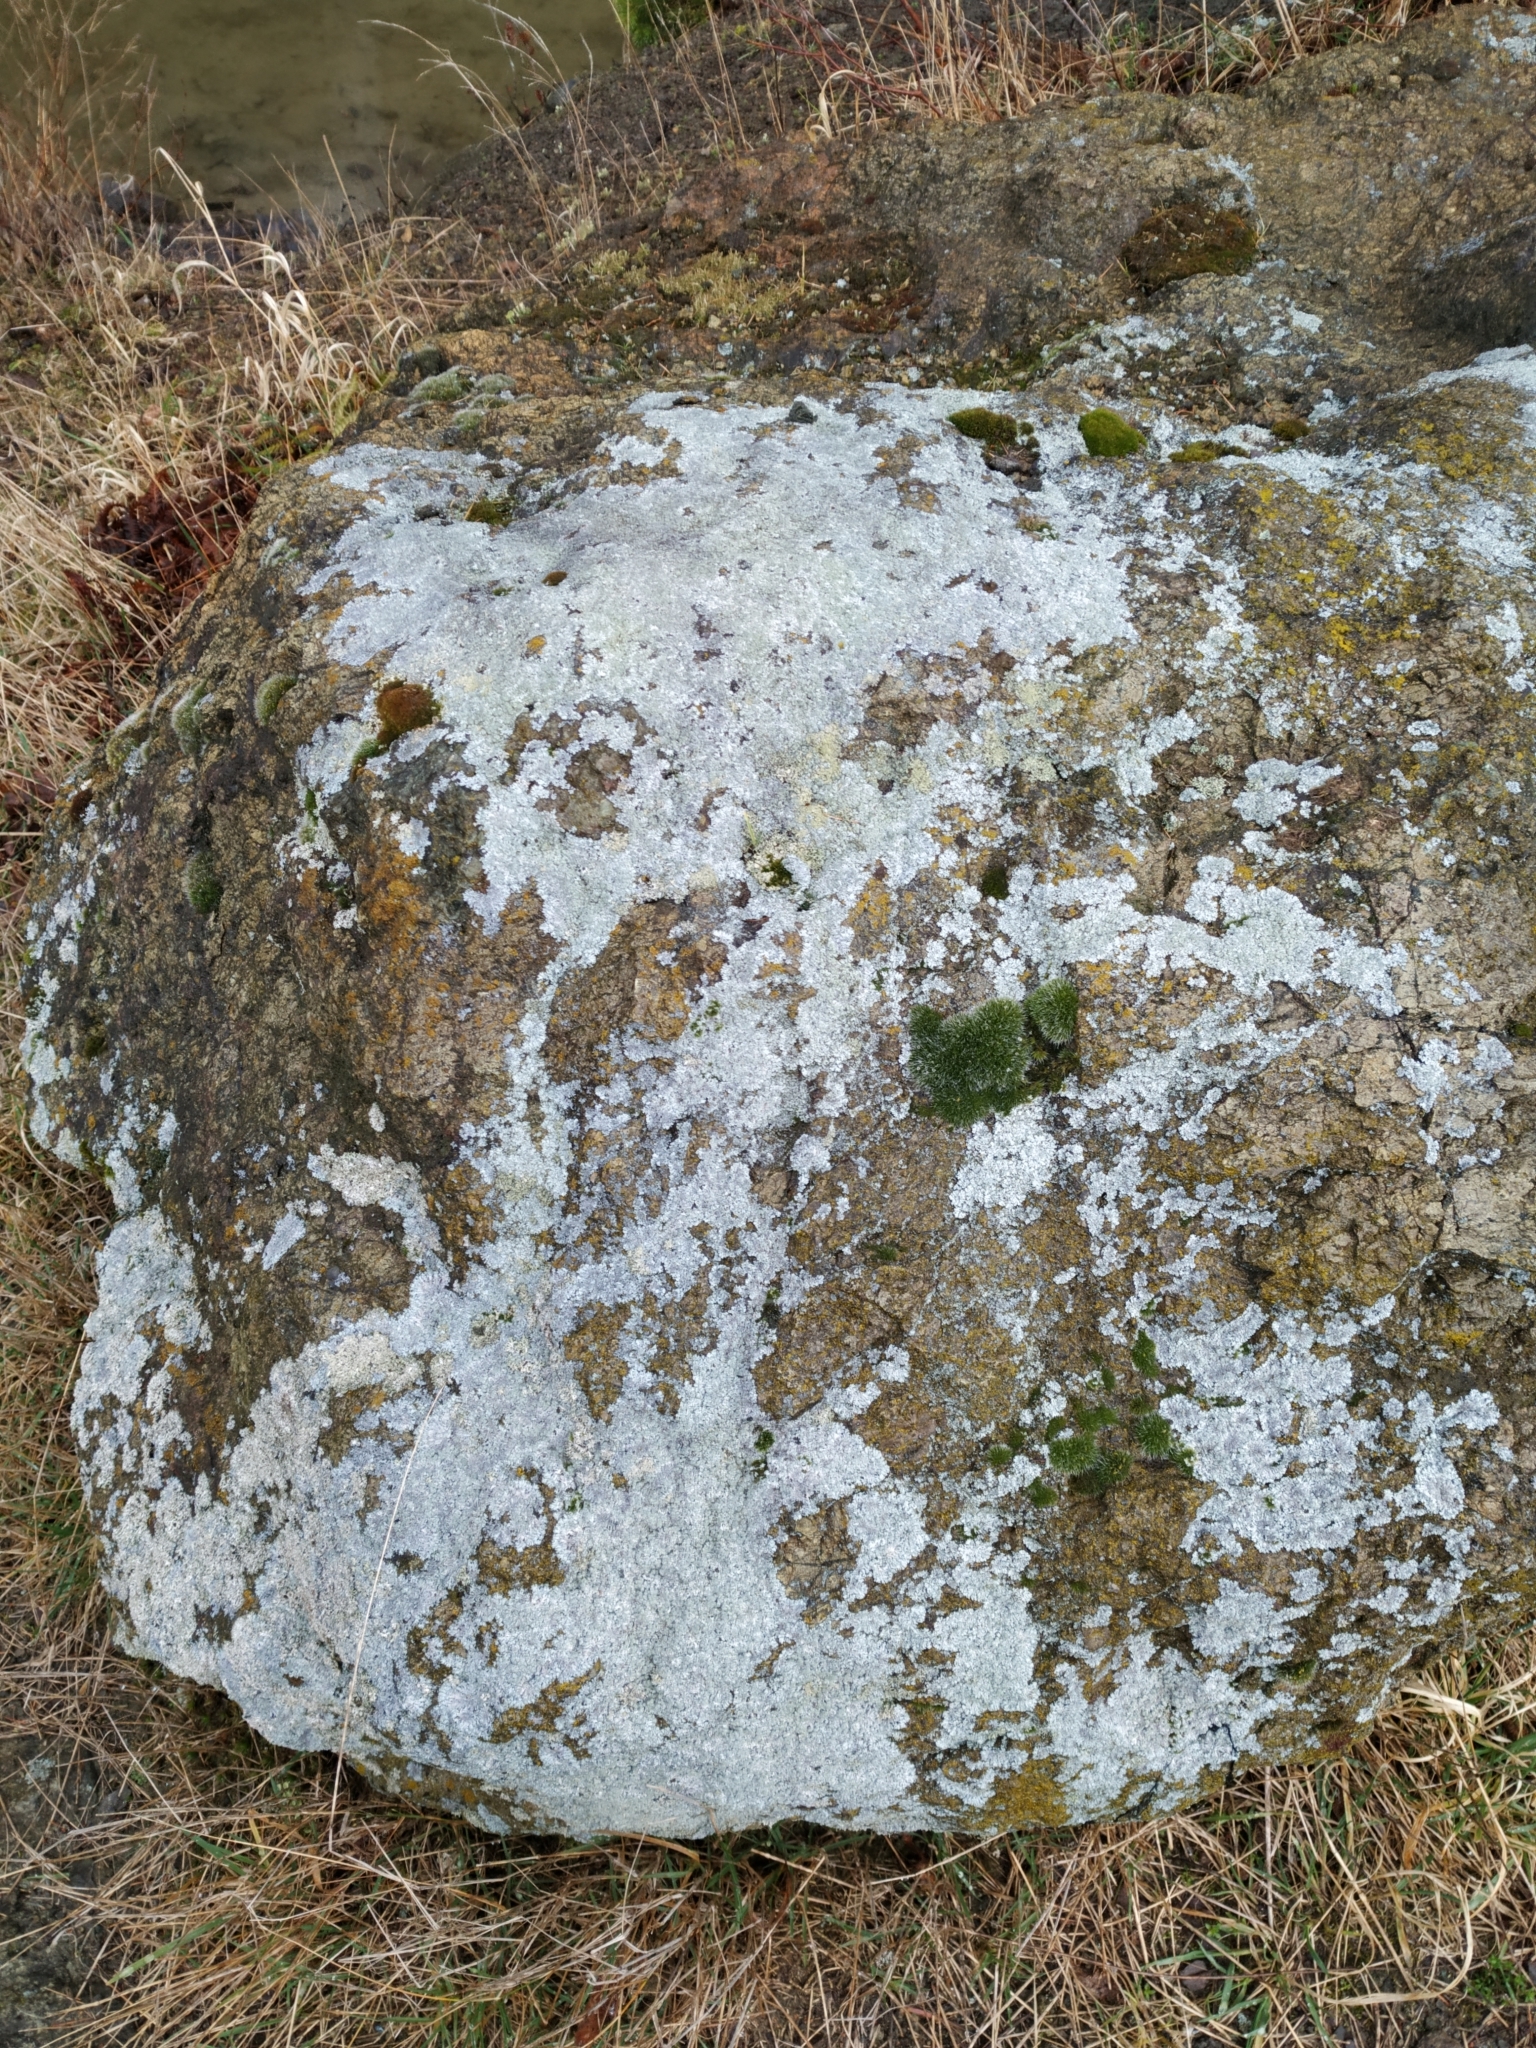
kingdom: Fungi
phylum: Ascomycota
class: Lecanoromycetes
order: Caliciales
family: Physciaceae
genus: Physcia
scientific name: Physcia caesia
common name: Blue-gray rosette lichen
